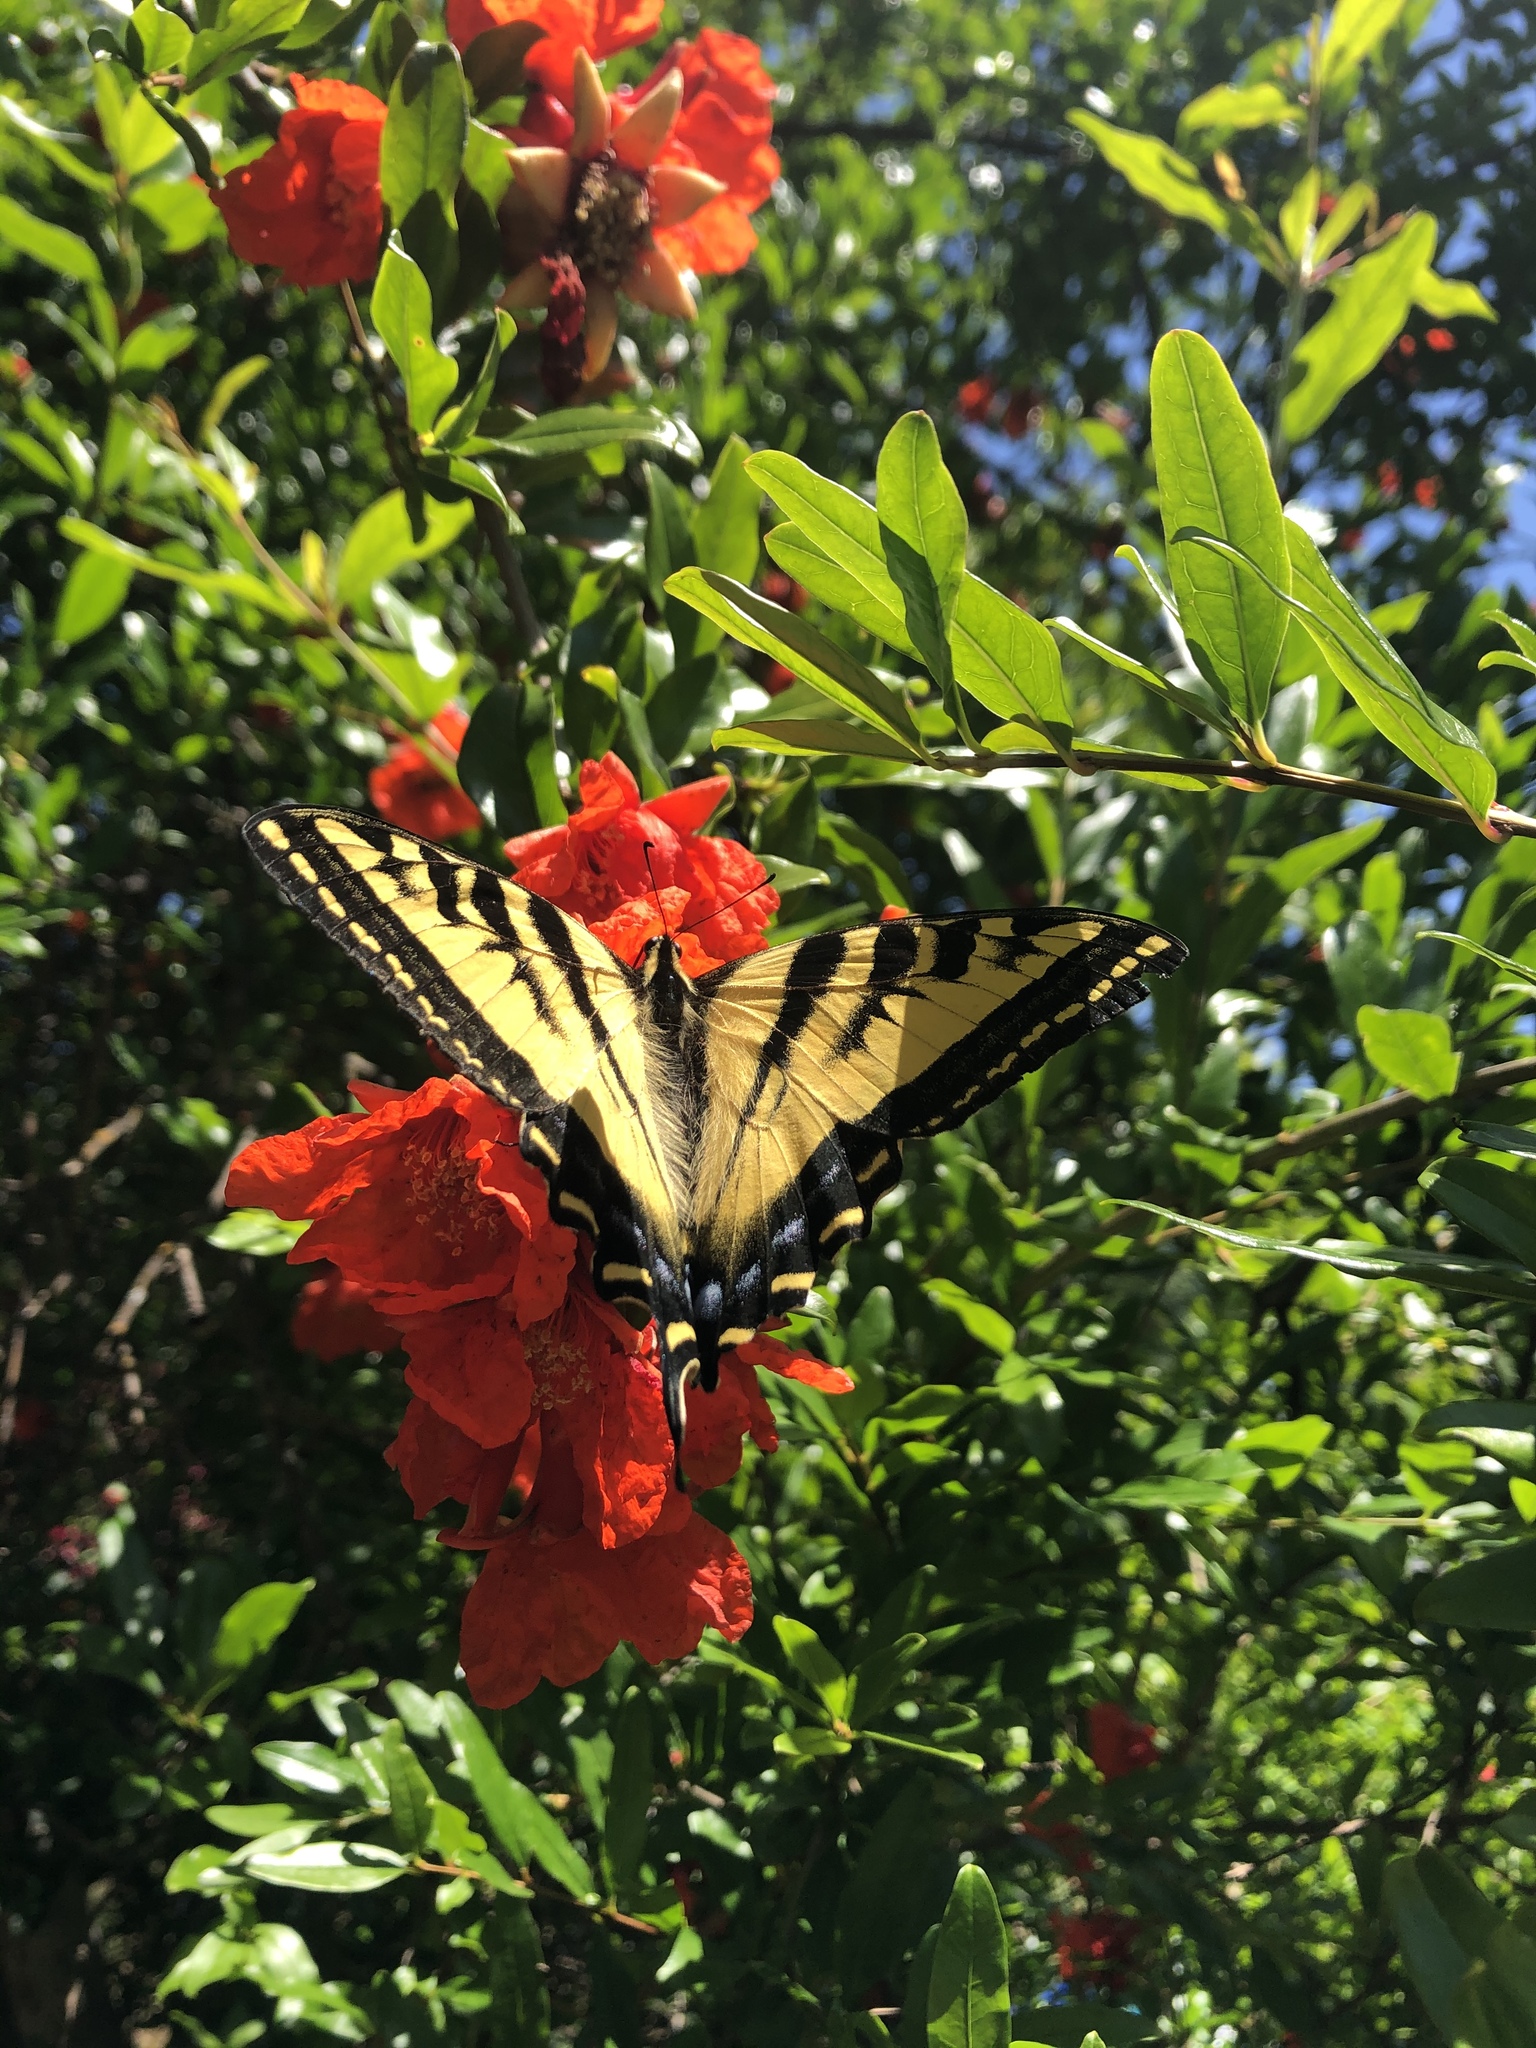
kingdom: Animalia
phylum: Arthropoda
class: Insecta
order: Lepidoptera
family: Papilionidae
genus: Papilio
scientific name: Papilio rutulus
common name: Western tiger swallowtail
